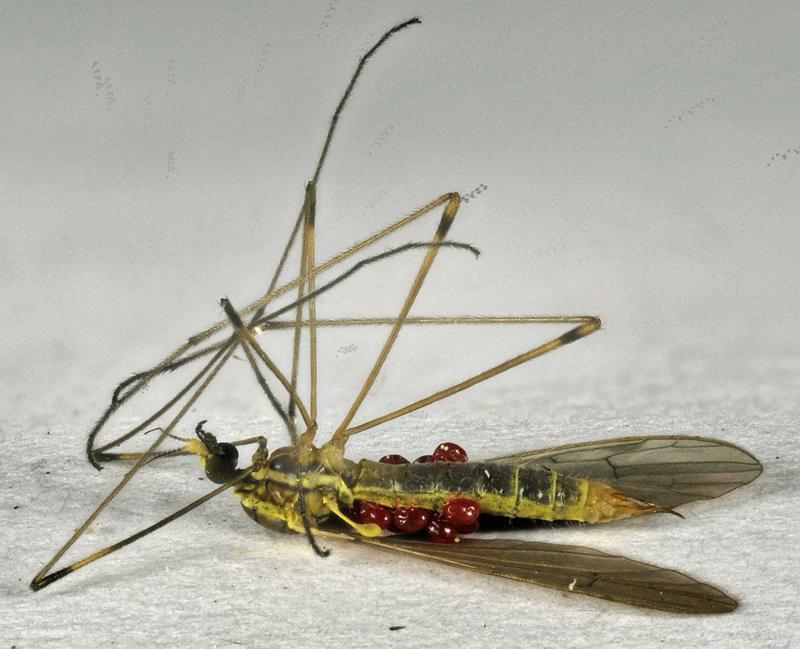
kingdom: Animalia
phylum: Arthropoda
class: Insecta
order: Diptera
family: Limoniidae
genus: Gonomyia
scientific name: Gonomyia sulphurella
